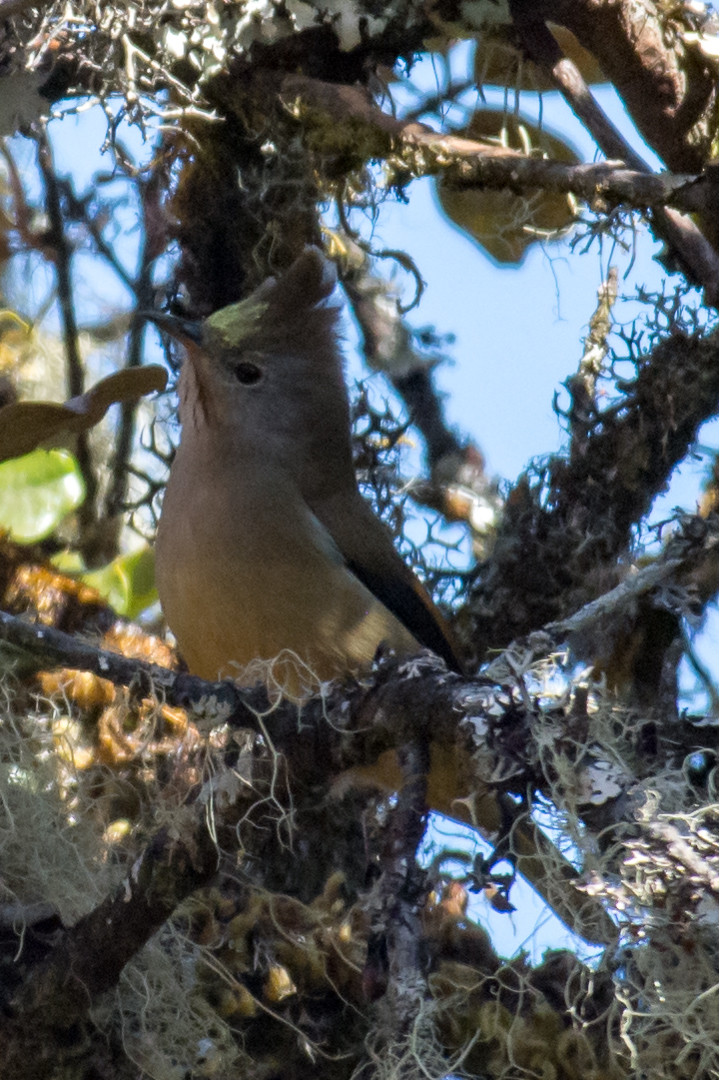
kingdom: Animalia
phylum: Chordata
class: Aves
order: Passeriformes
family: Zosteropidae
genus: Yuhina
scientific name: Yuhina gularis
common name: Stripe-throated yuhina
